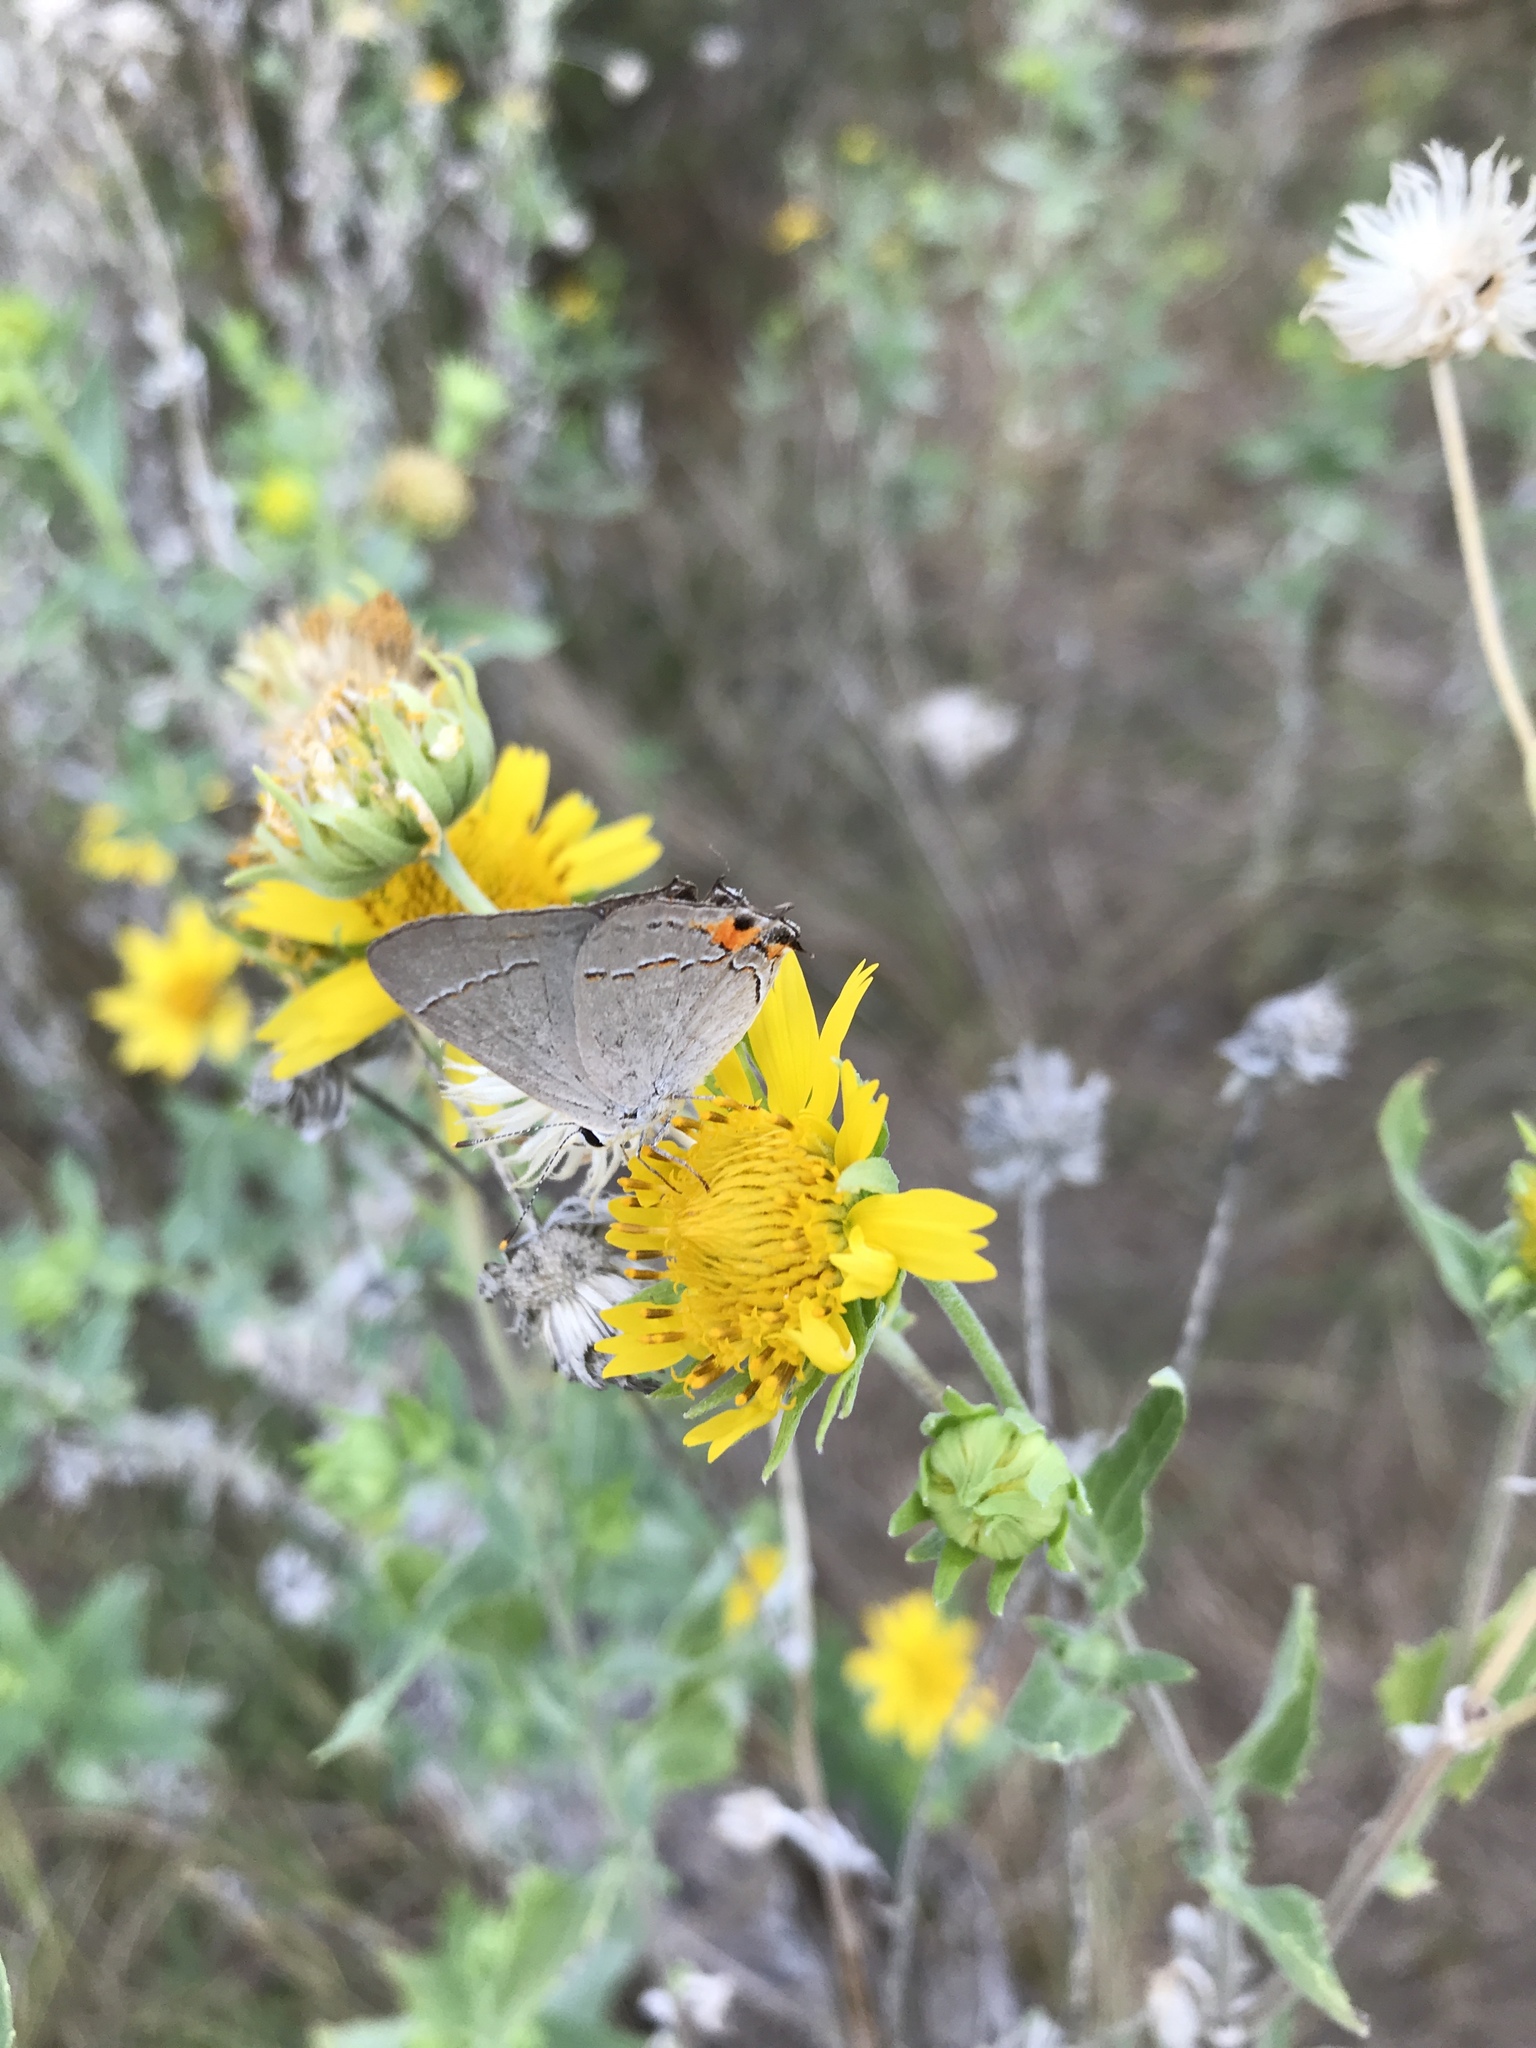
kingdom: Animalia
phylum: Arthropoda
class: Insecta
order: Lepidoptera
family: Lycaenidae
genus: Strymon
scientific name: Strymon melinus
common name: Gray hairstreak
